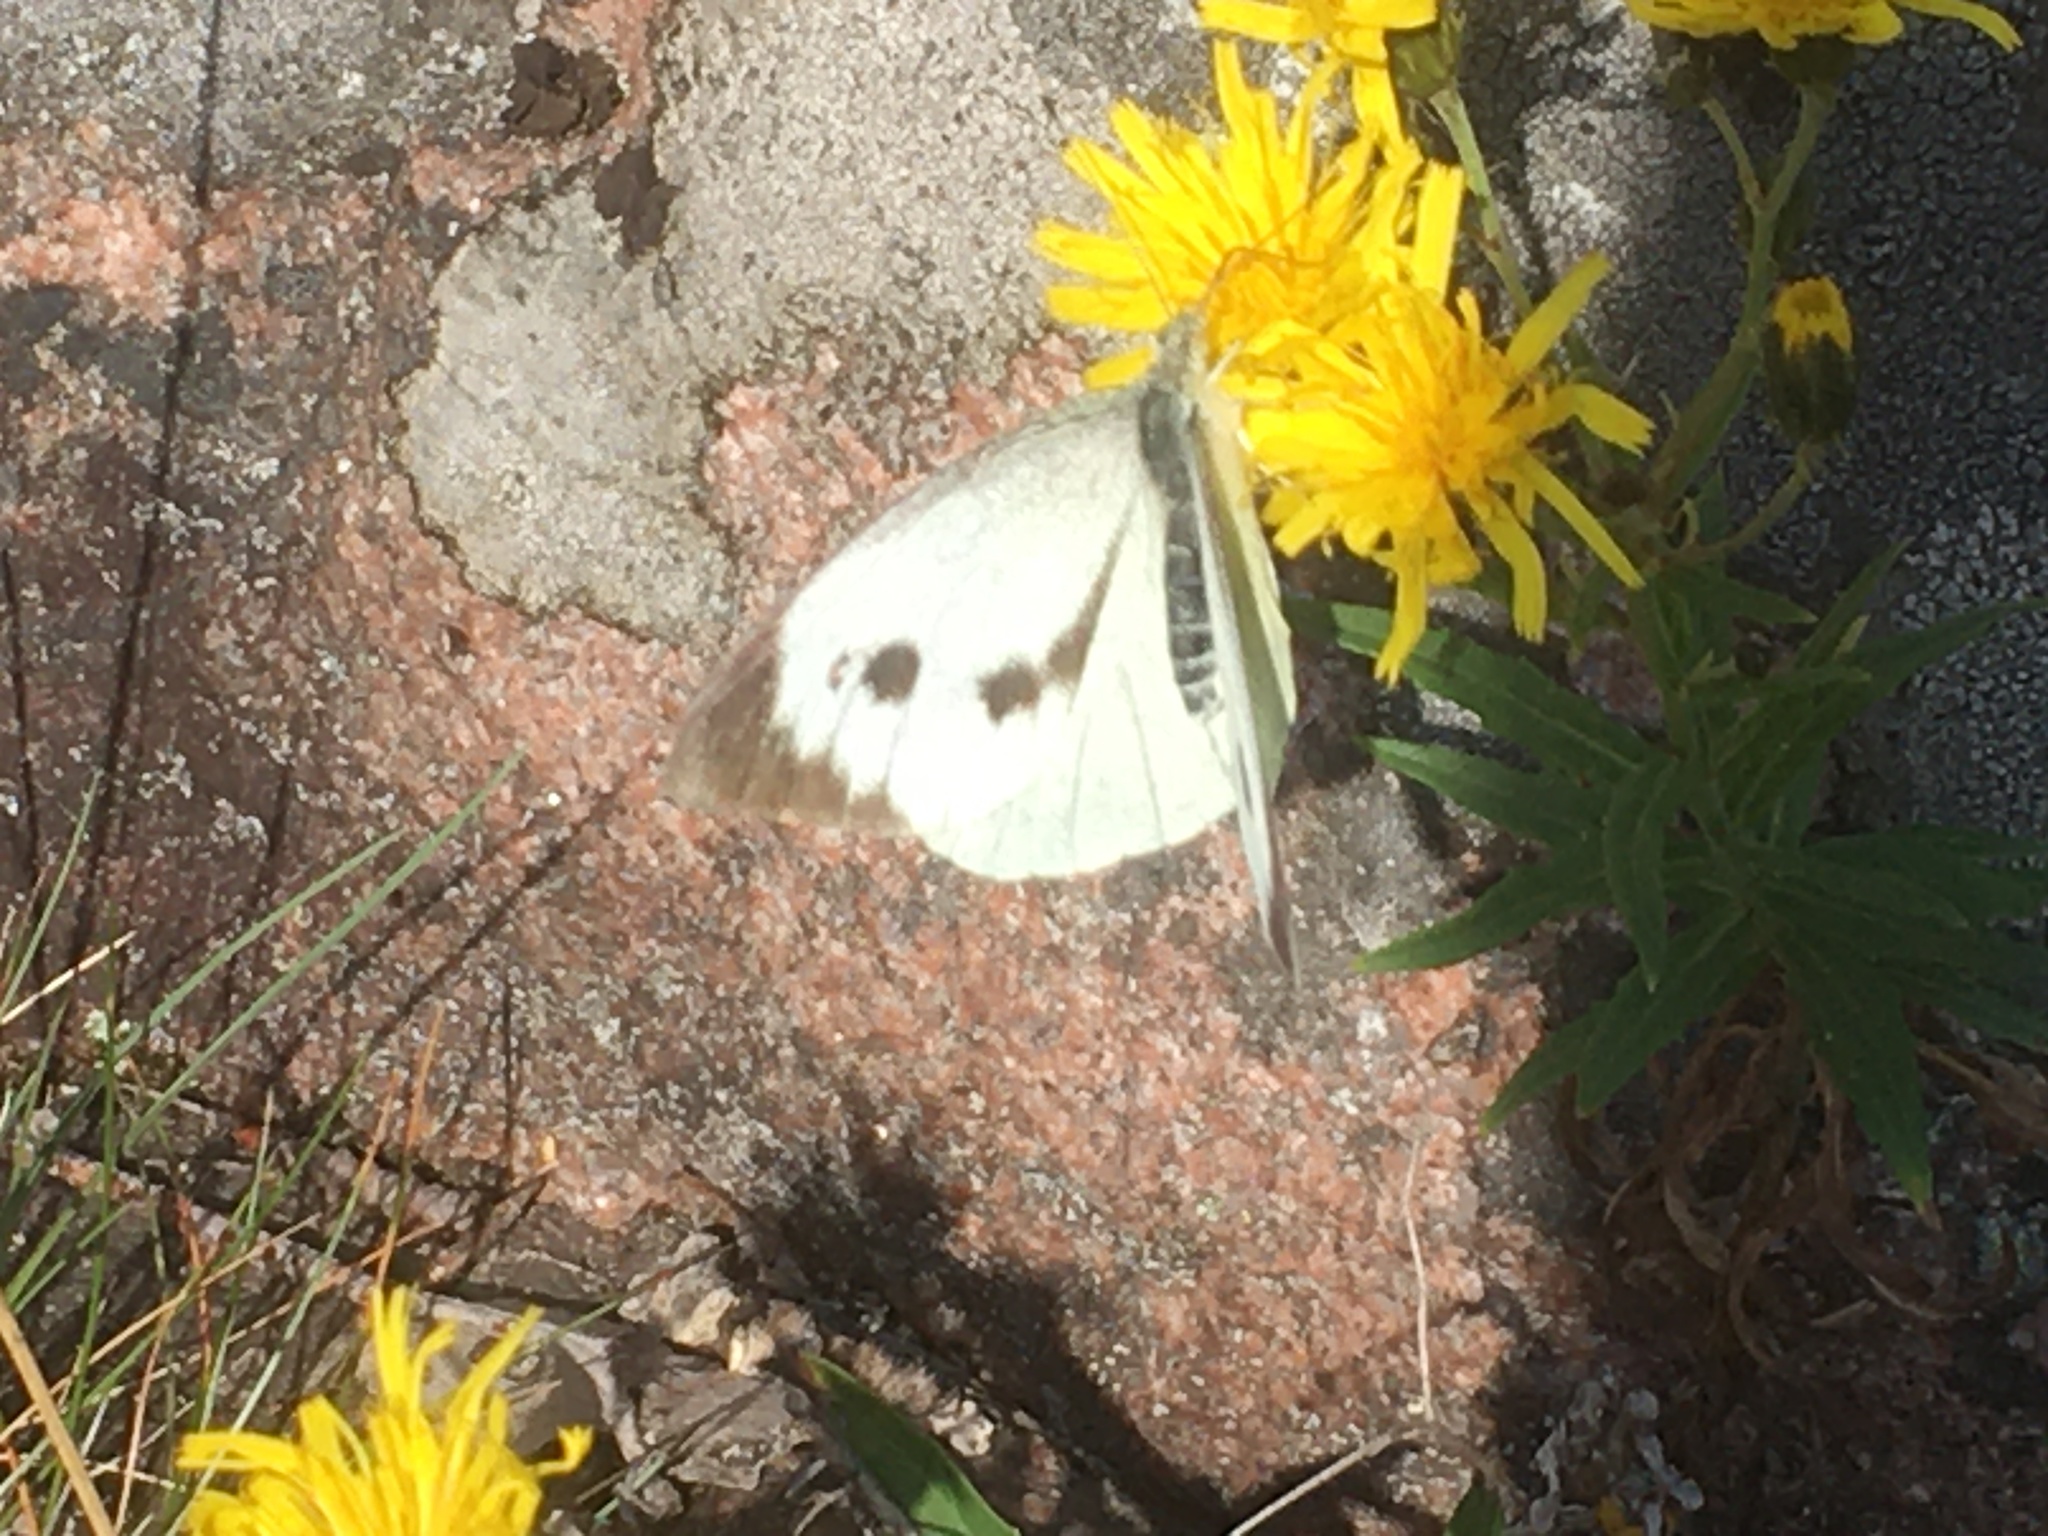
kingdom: Animalia
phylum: Arthropoda
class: Insecta
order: Lepidoptera
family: Pieridae
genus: Pieris
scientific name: Pieris brassicae
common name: Large white
